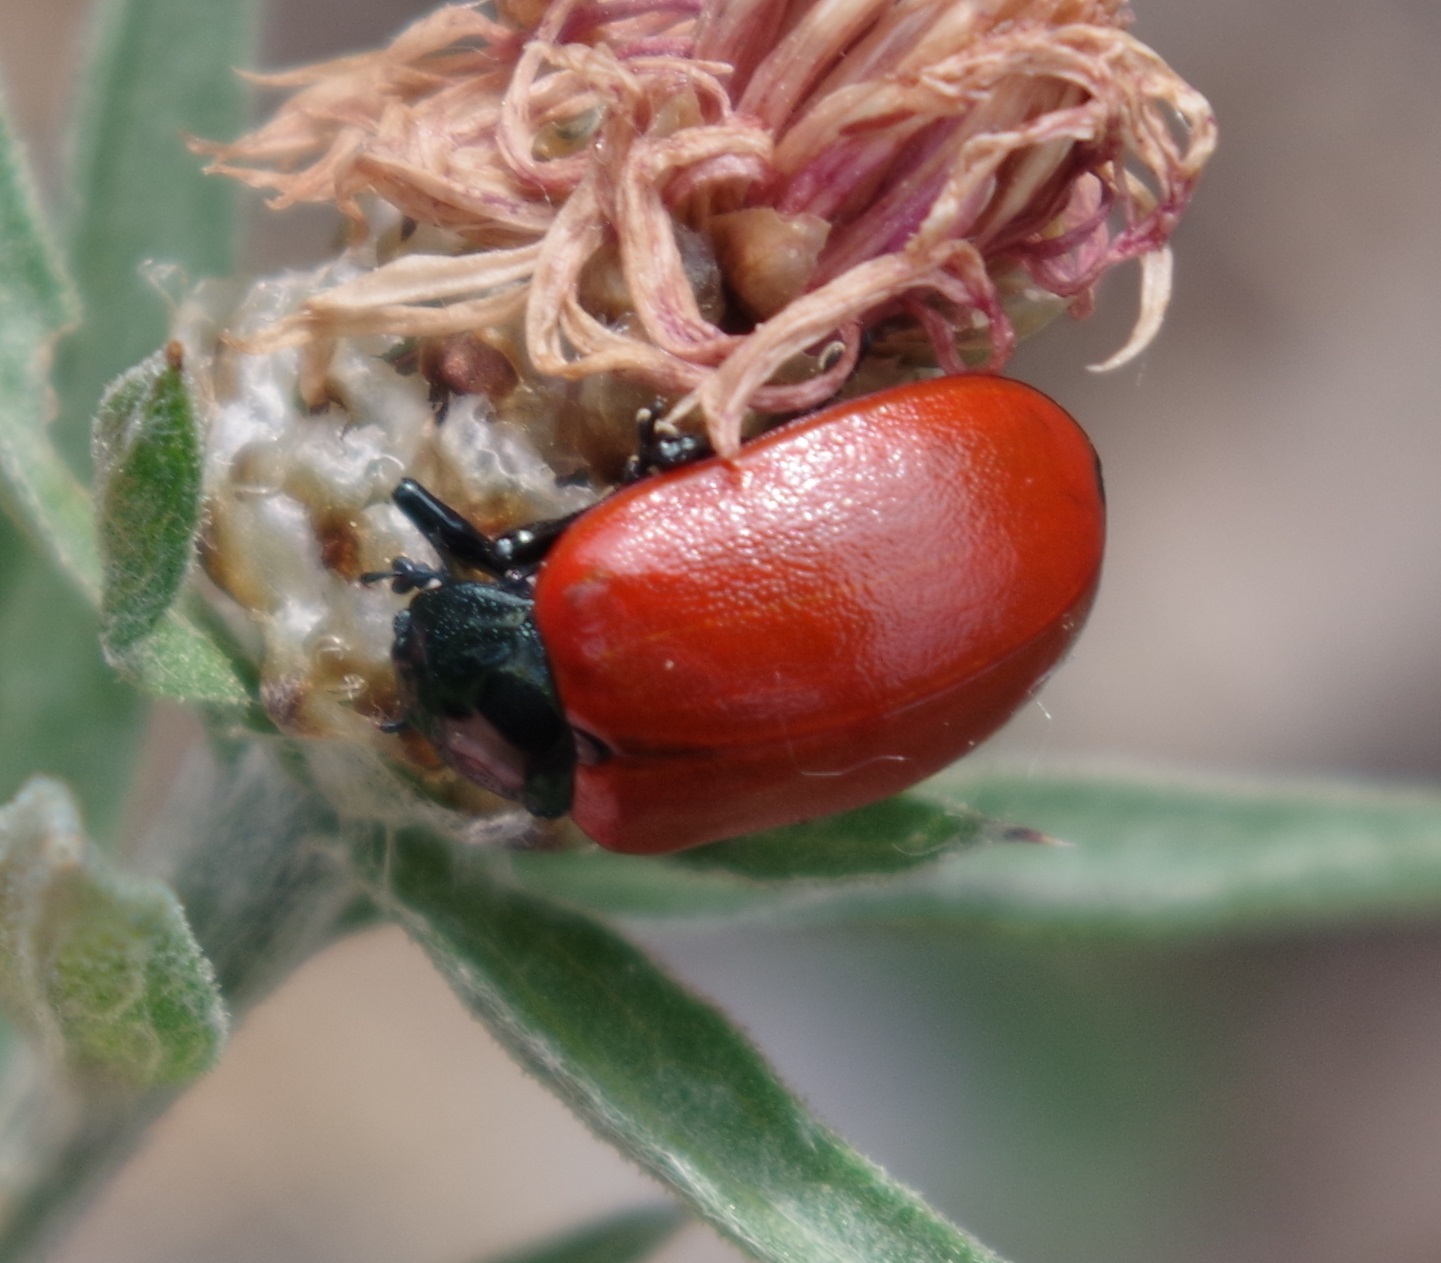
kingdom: Animalia
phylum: Arthropoda
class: Insecta
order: Coleoptera
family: Chrysomelidae
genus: Chrysomela
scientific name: Chrysomela populi
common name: Red poplar leaf beetle
